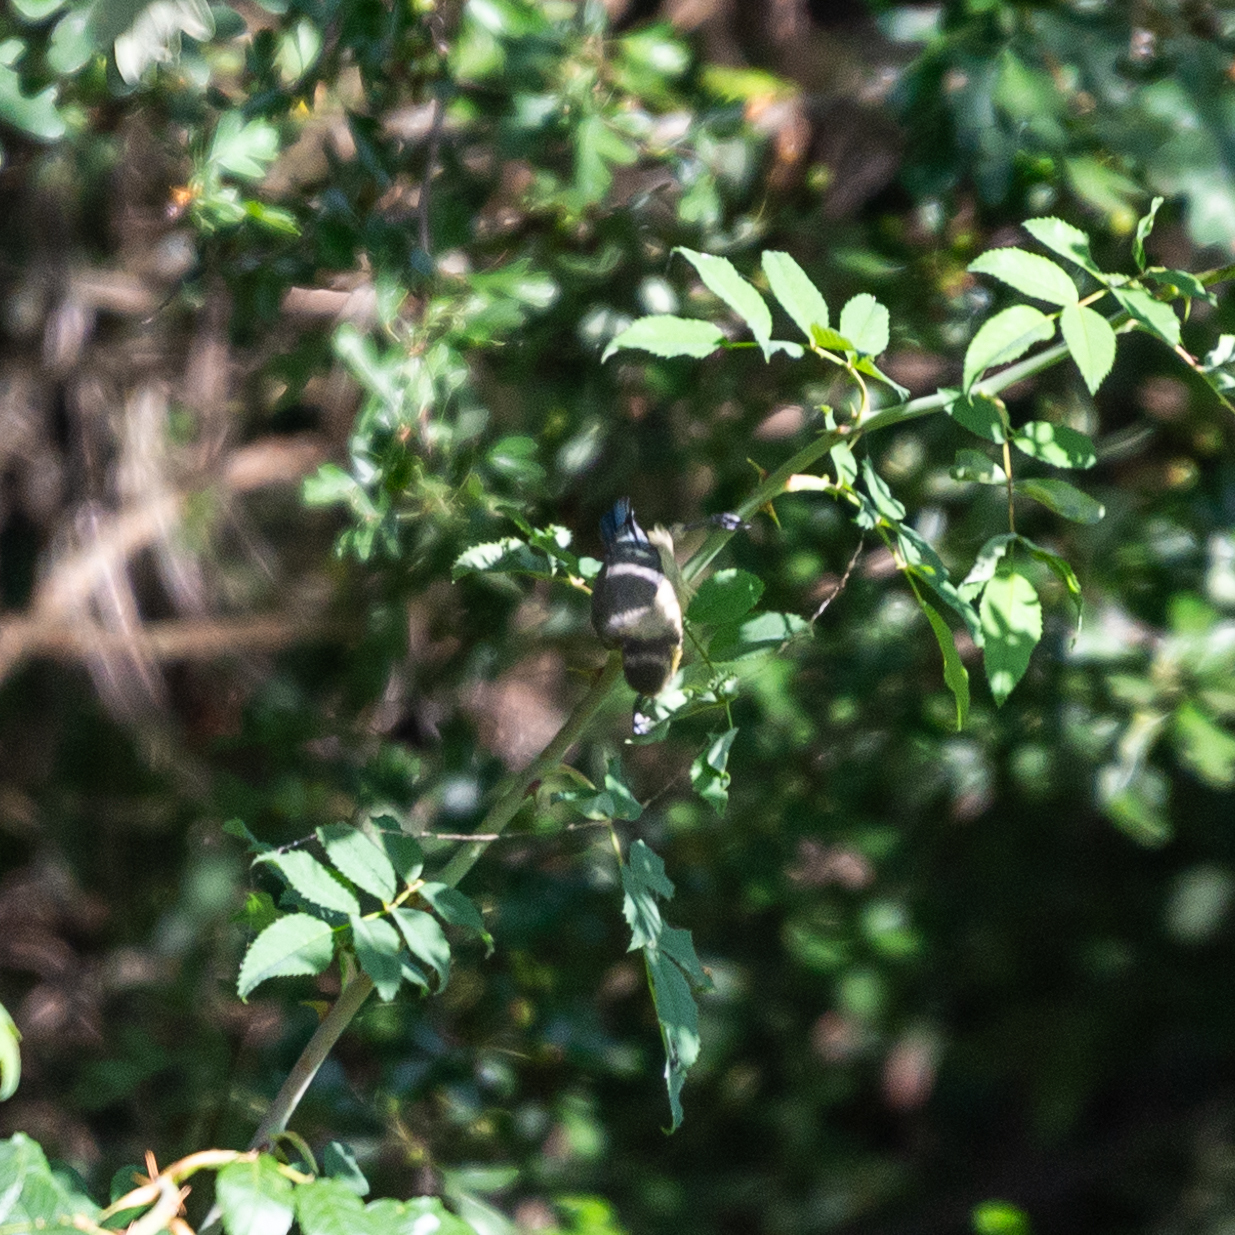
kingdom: Animalia
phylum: Chordata
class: Aves
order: Passeriformes
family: Paridae
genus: Cyanistes
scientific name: Cyanistes caeruleus
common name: Eurasian blue tit
